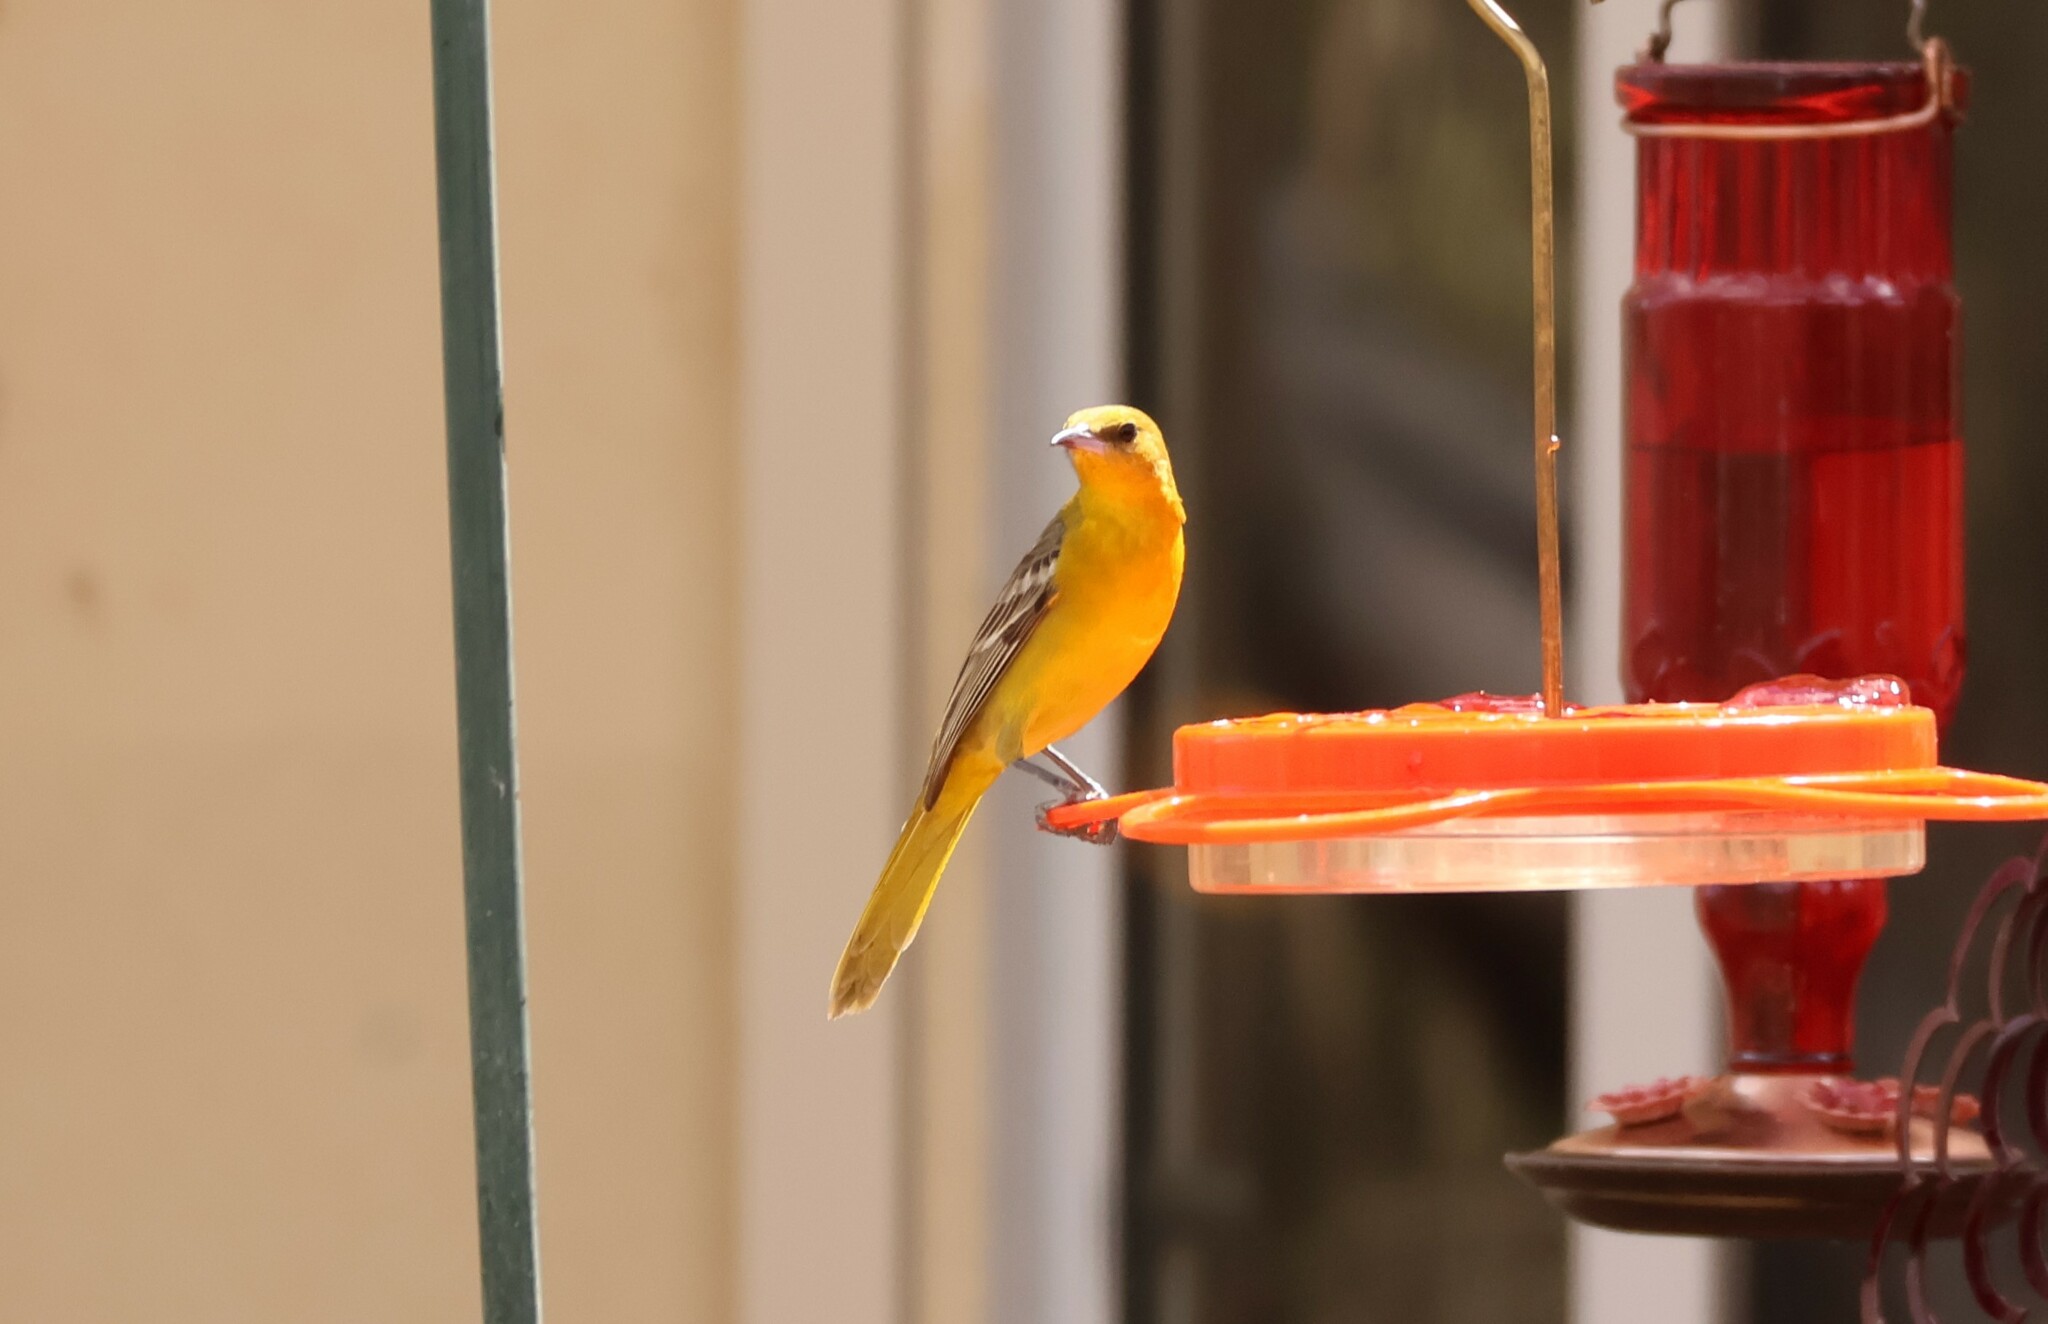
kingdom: Animalia
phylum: Chordata
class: Aves
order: Passeriformes
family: Icteridae
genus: Icterus
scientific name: Icterus cucullatus
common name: Hooded oriole
